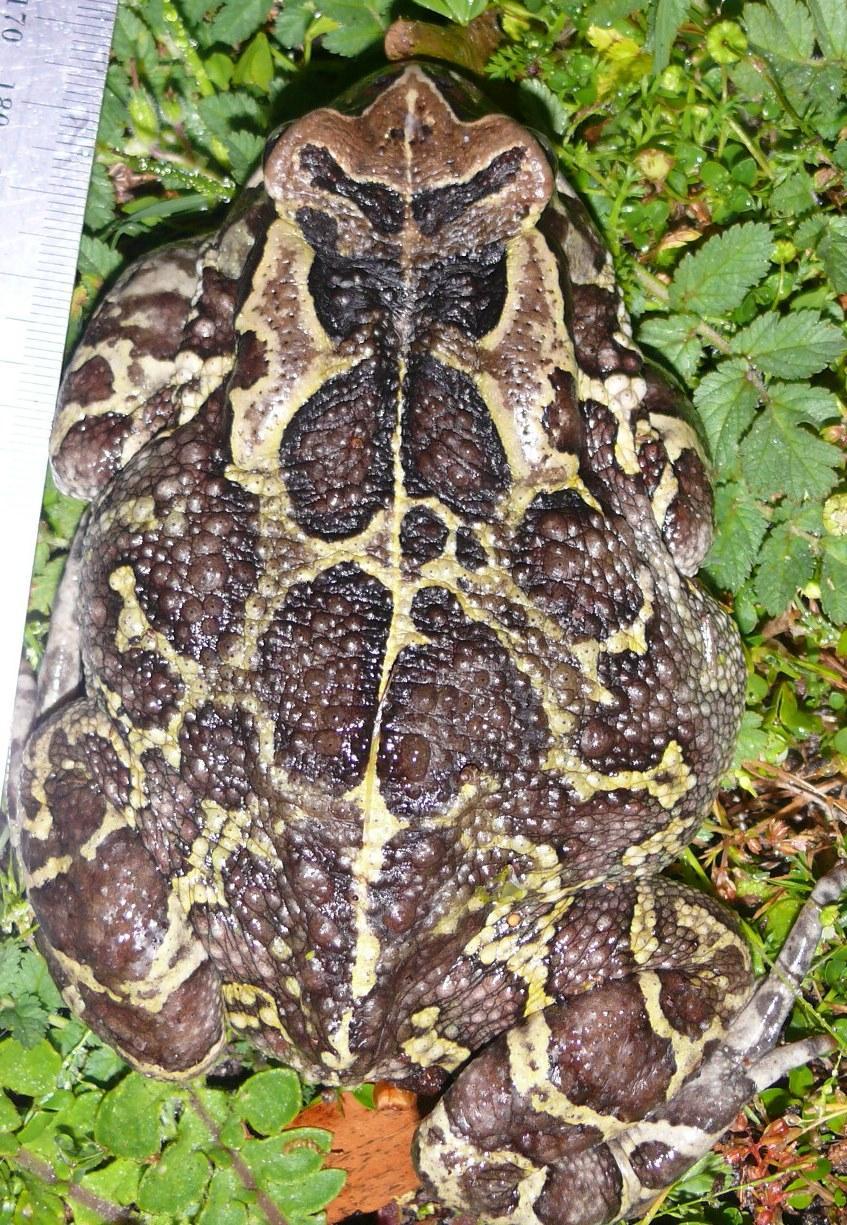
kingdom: Animalia
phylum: Chordata
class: Amphibia
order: Anura
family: Bufonidae
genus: Sclerophrys
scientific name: Sclerophrys pantherina
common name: Panther toad
